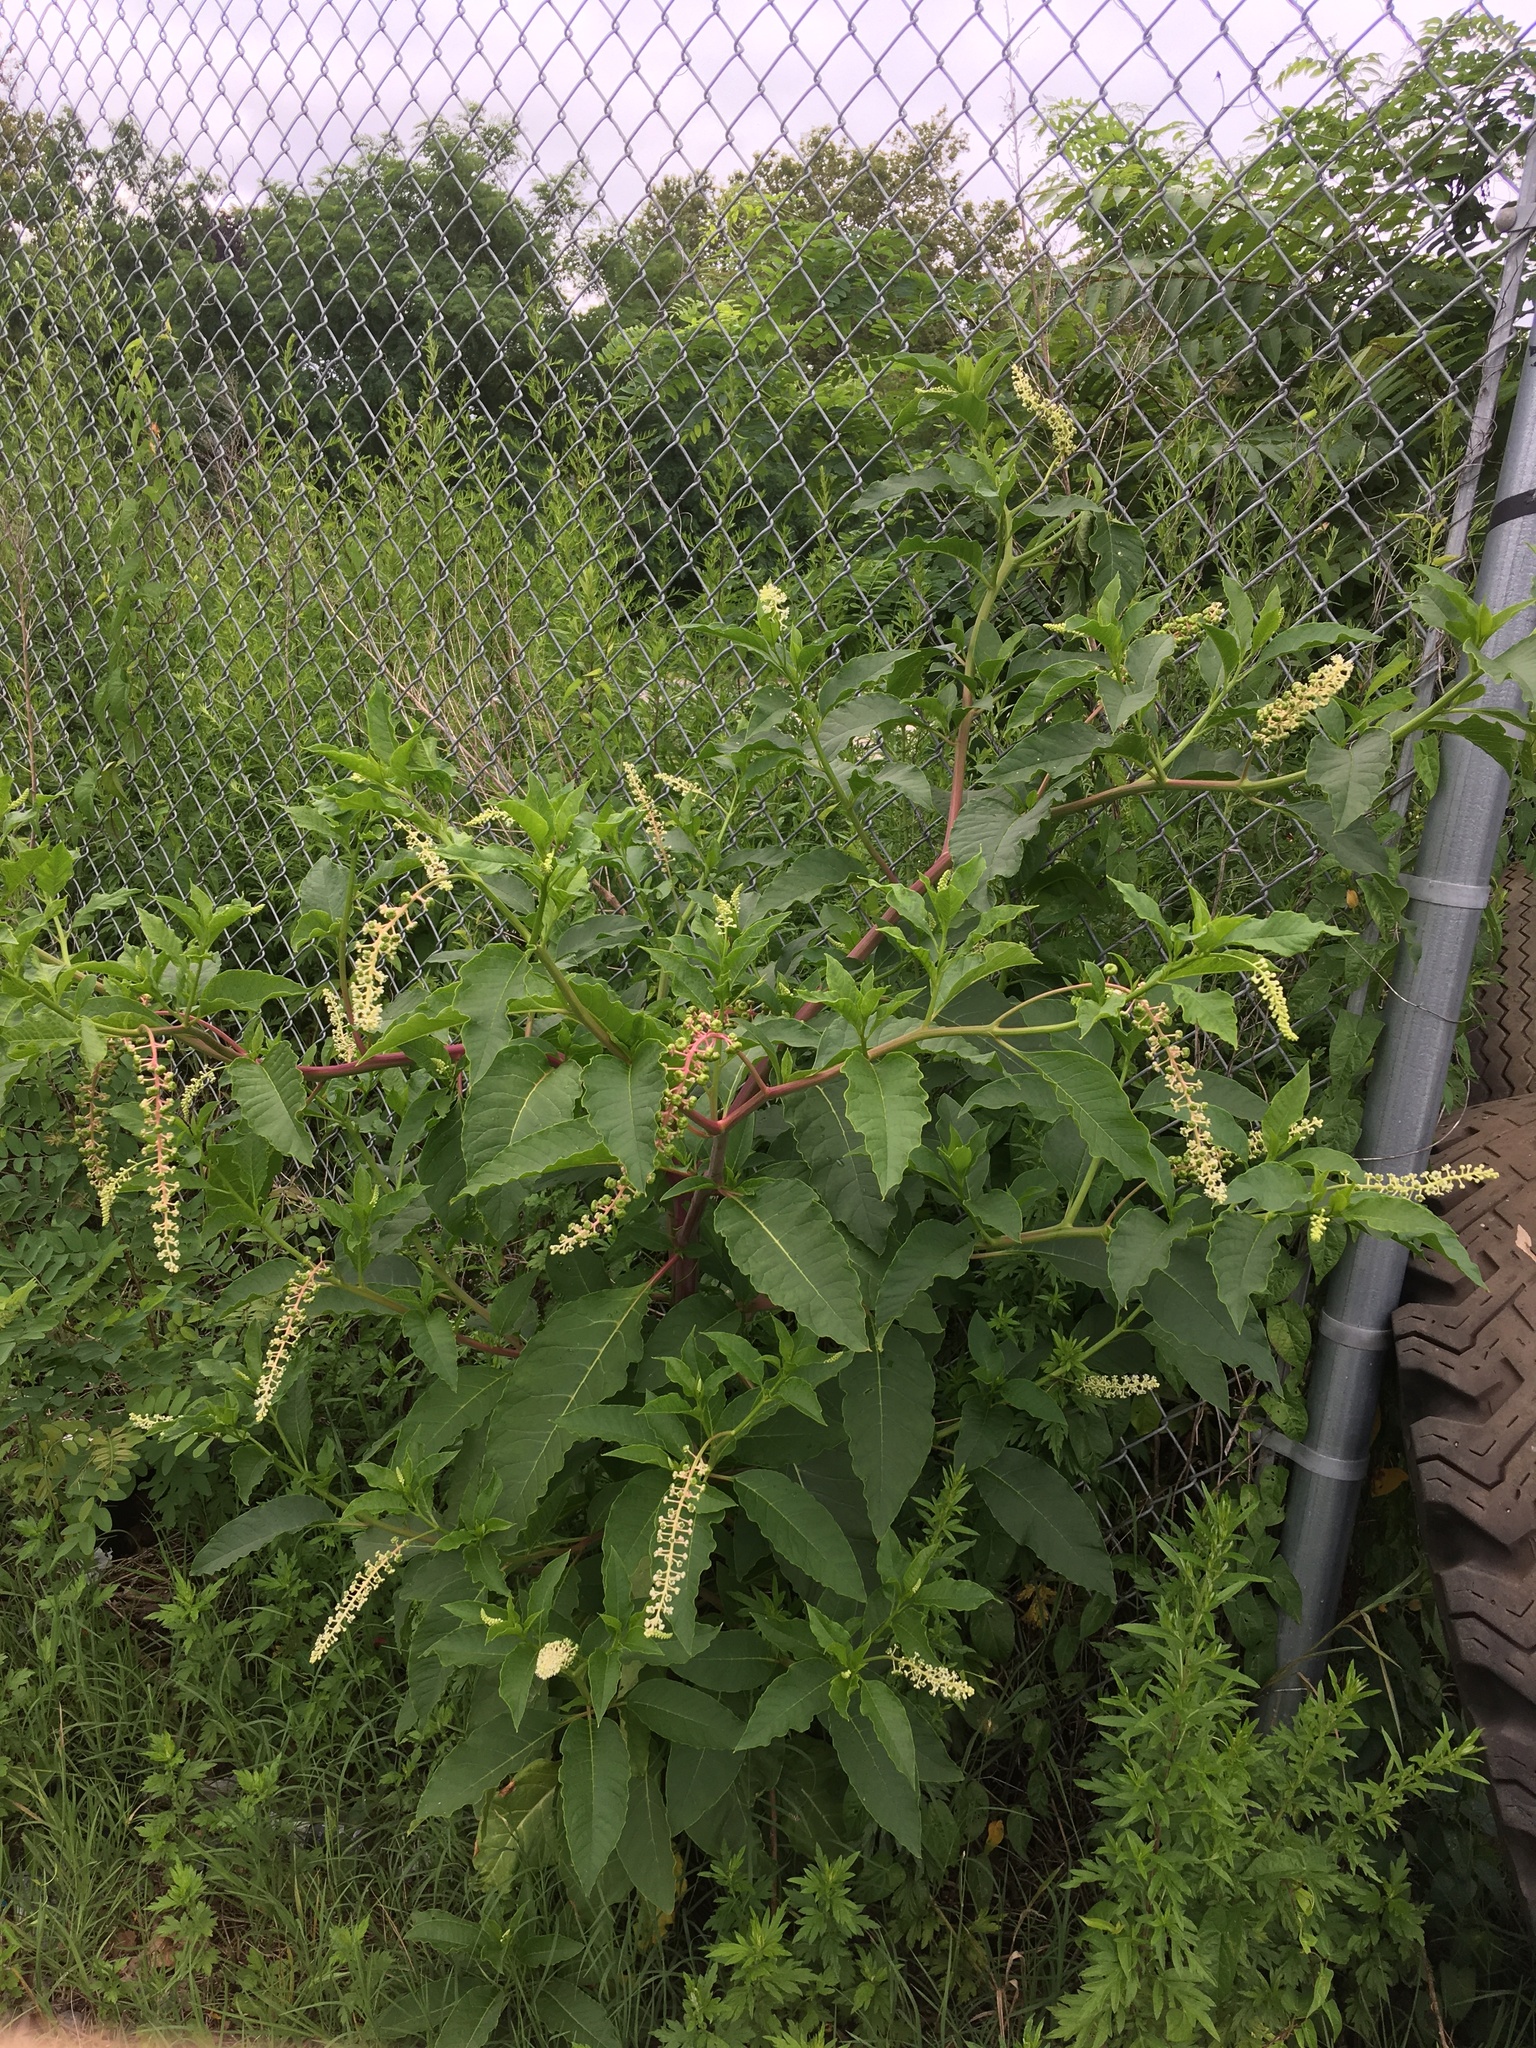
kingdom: Plantae
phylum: Tracheophyta
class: Magnoliopsida
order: Caryophyllales
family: Phytolaccaceae
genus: Phytolacca
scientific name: Phytolacca americana
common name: American pokeweed
